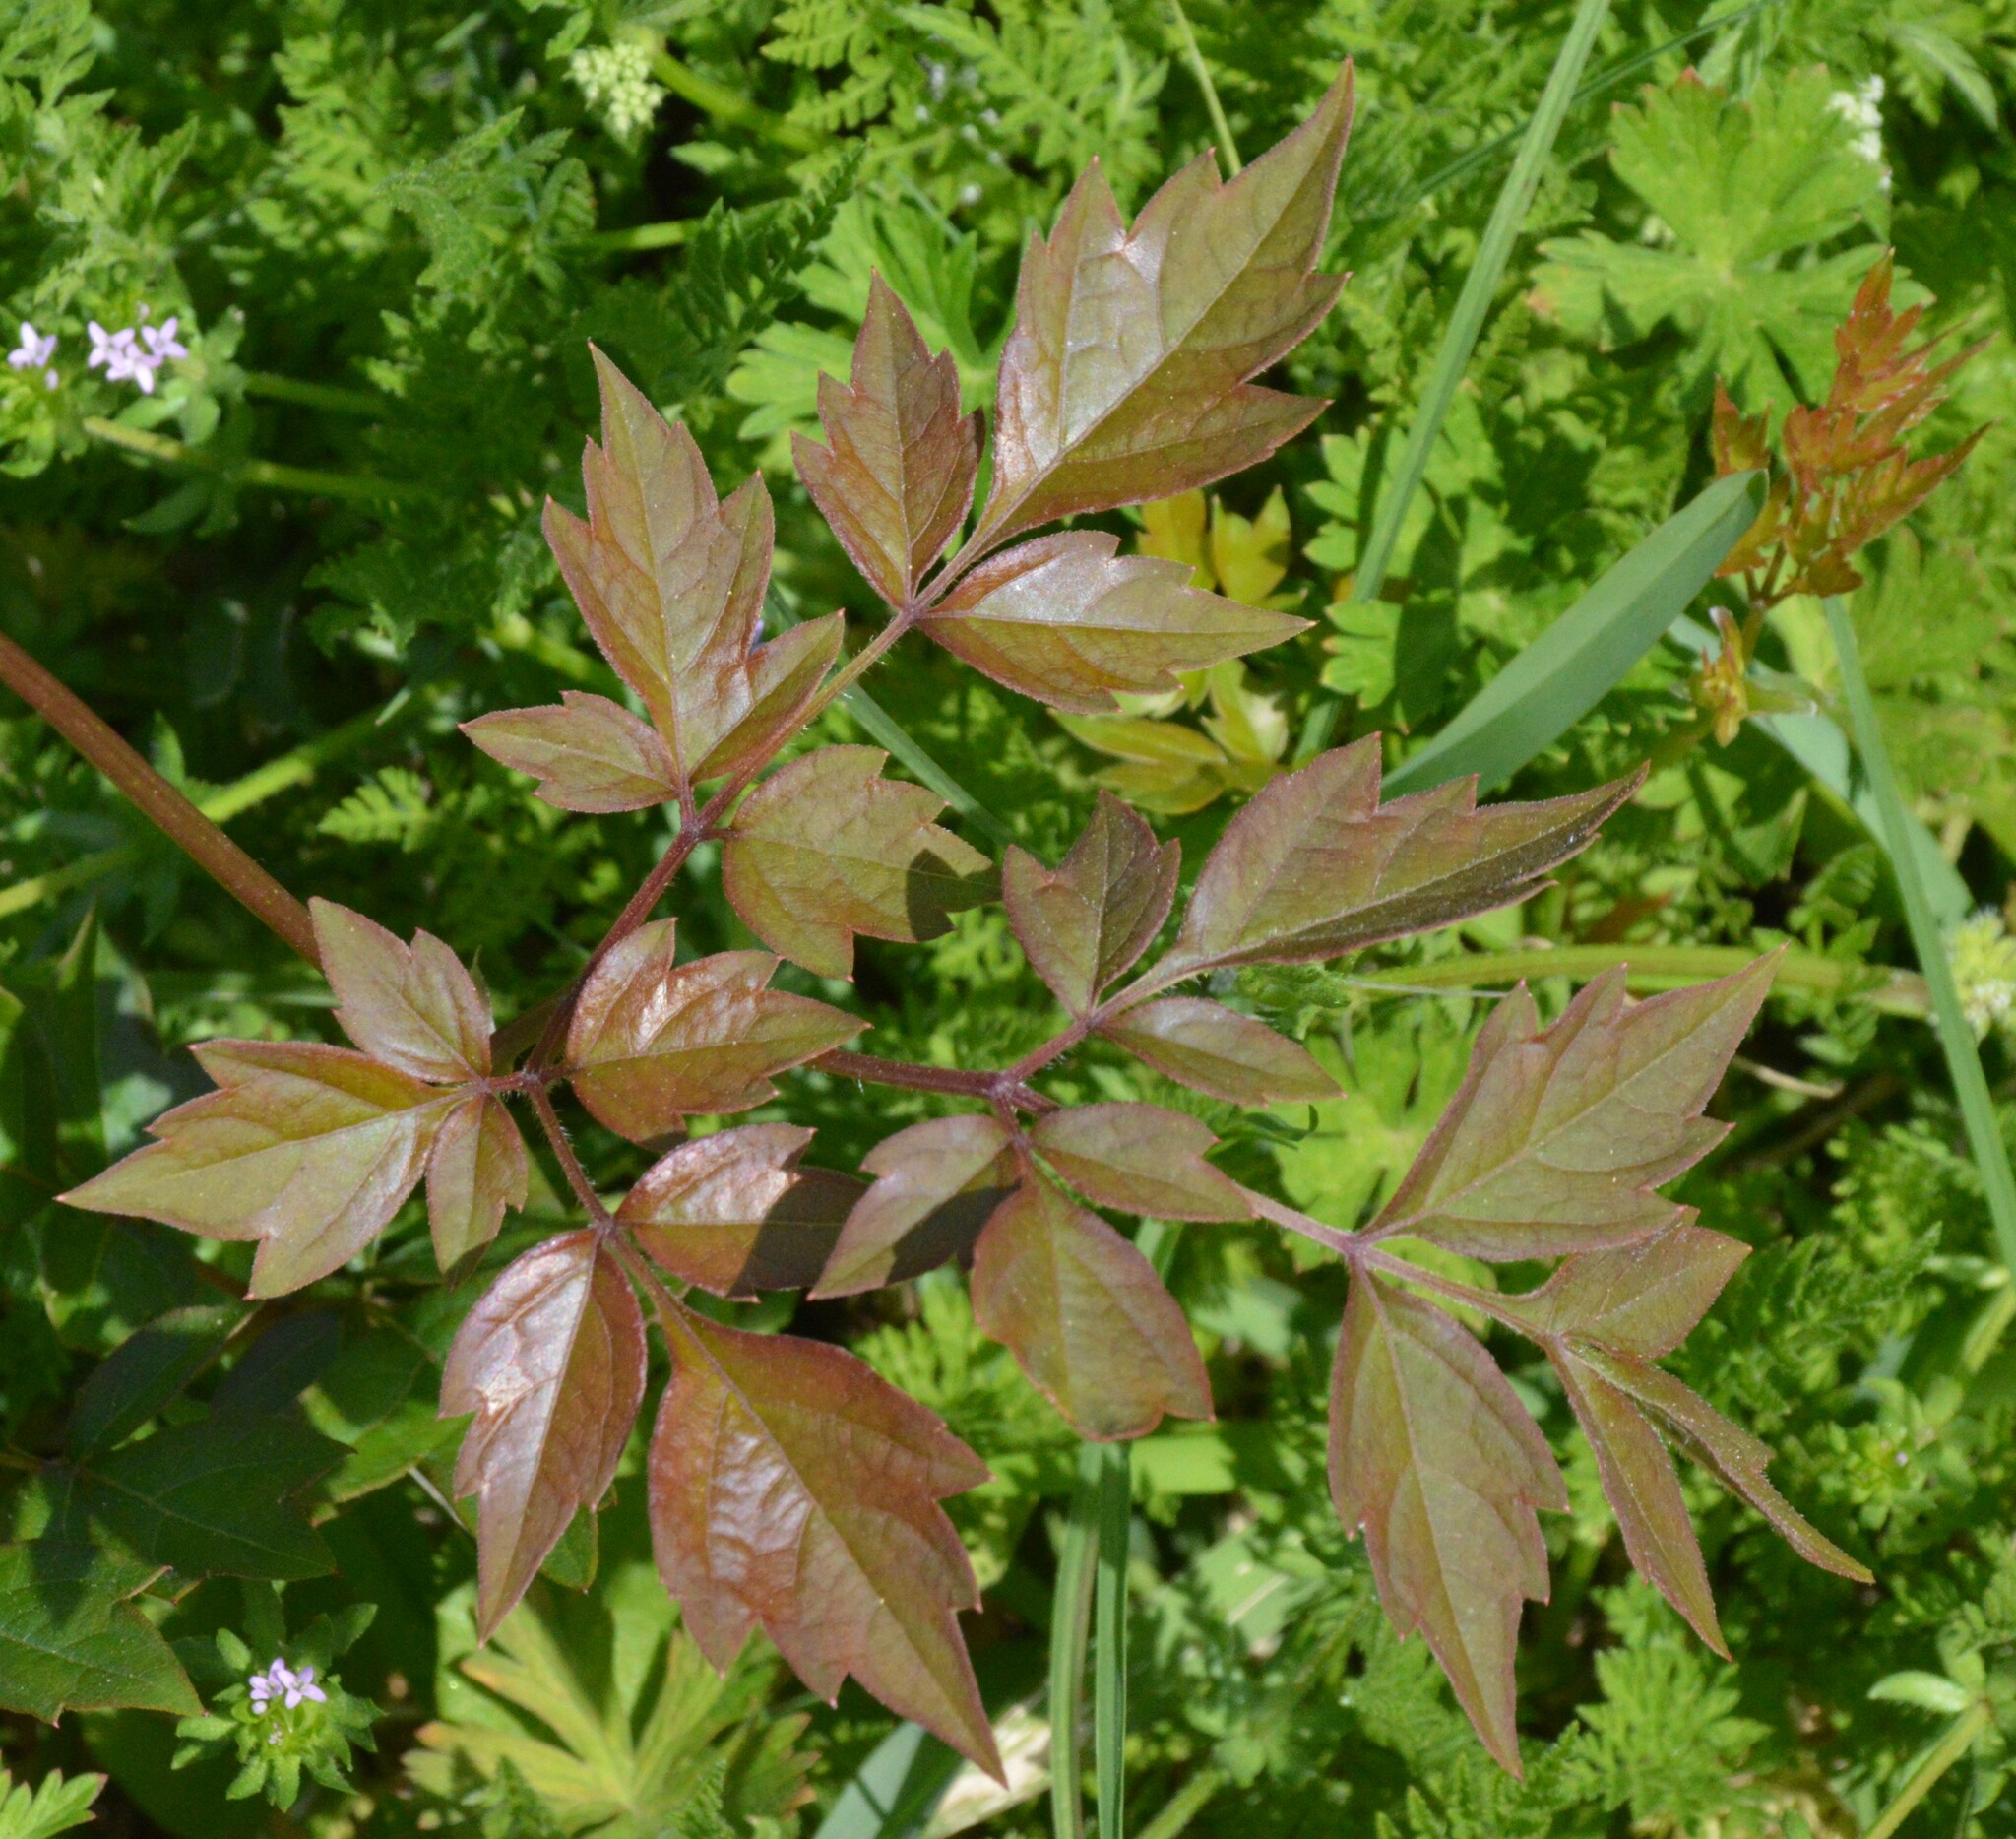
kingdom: Plantae
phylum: Tracheophyta
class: Magnoliopsida
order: Vitales
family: Vitaceae
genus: Nekemias
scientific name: Nekemias arborea
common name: Peppervine
